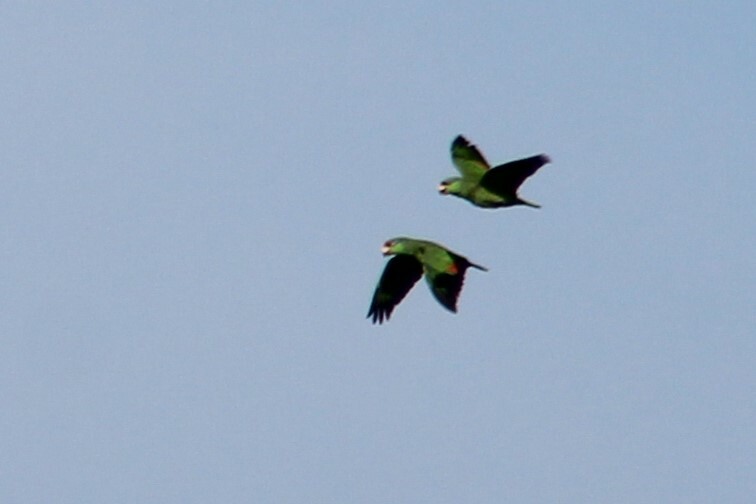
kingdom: Animalia
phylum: Chordata
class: Aves
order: Psittaciformes
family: Psittacidae
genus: Amazona
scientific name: Amazona finschi
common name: Lilac-crowned amazon
